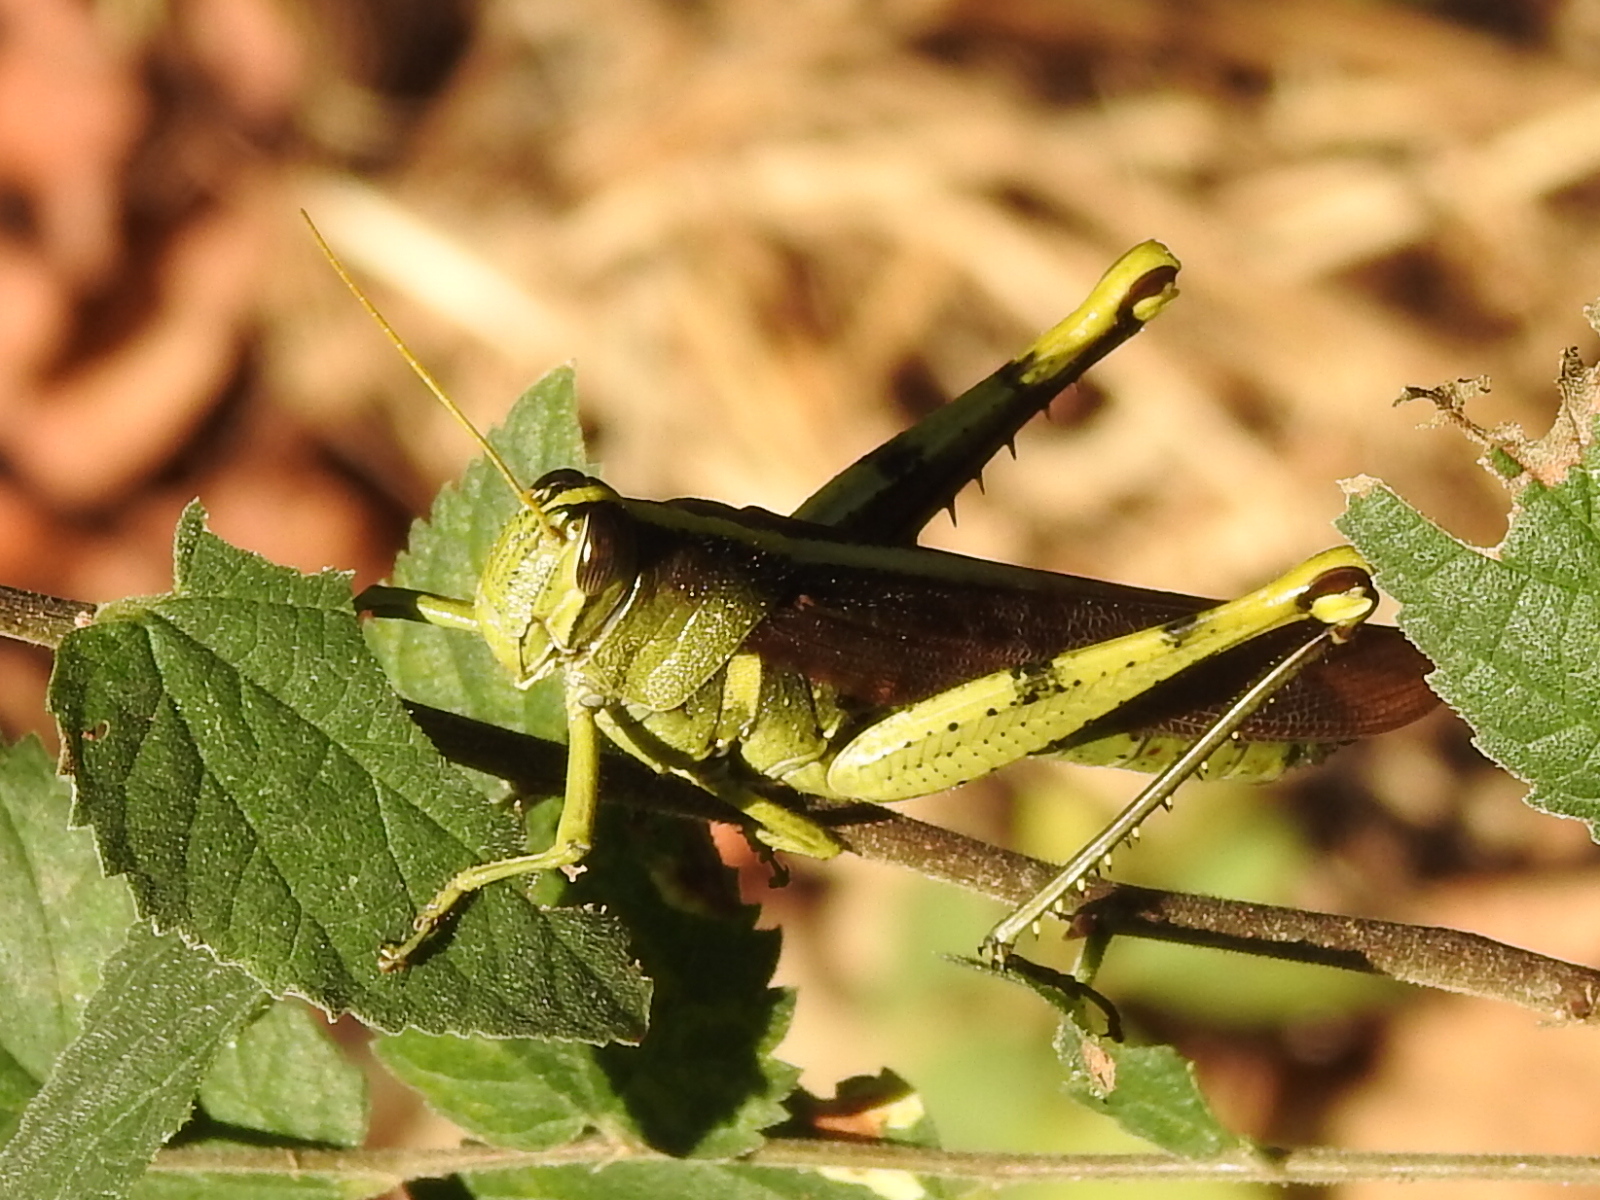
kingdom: Animalia
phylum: Arthropoda
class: Insecta
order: Orthoptera
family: Acrididae
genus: Schistocerca
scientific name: Schistocerca obscura
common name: Obscure bird grasshopper
